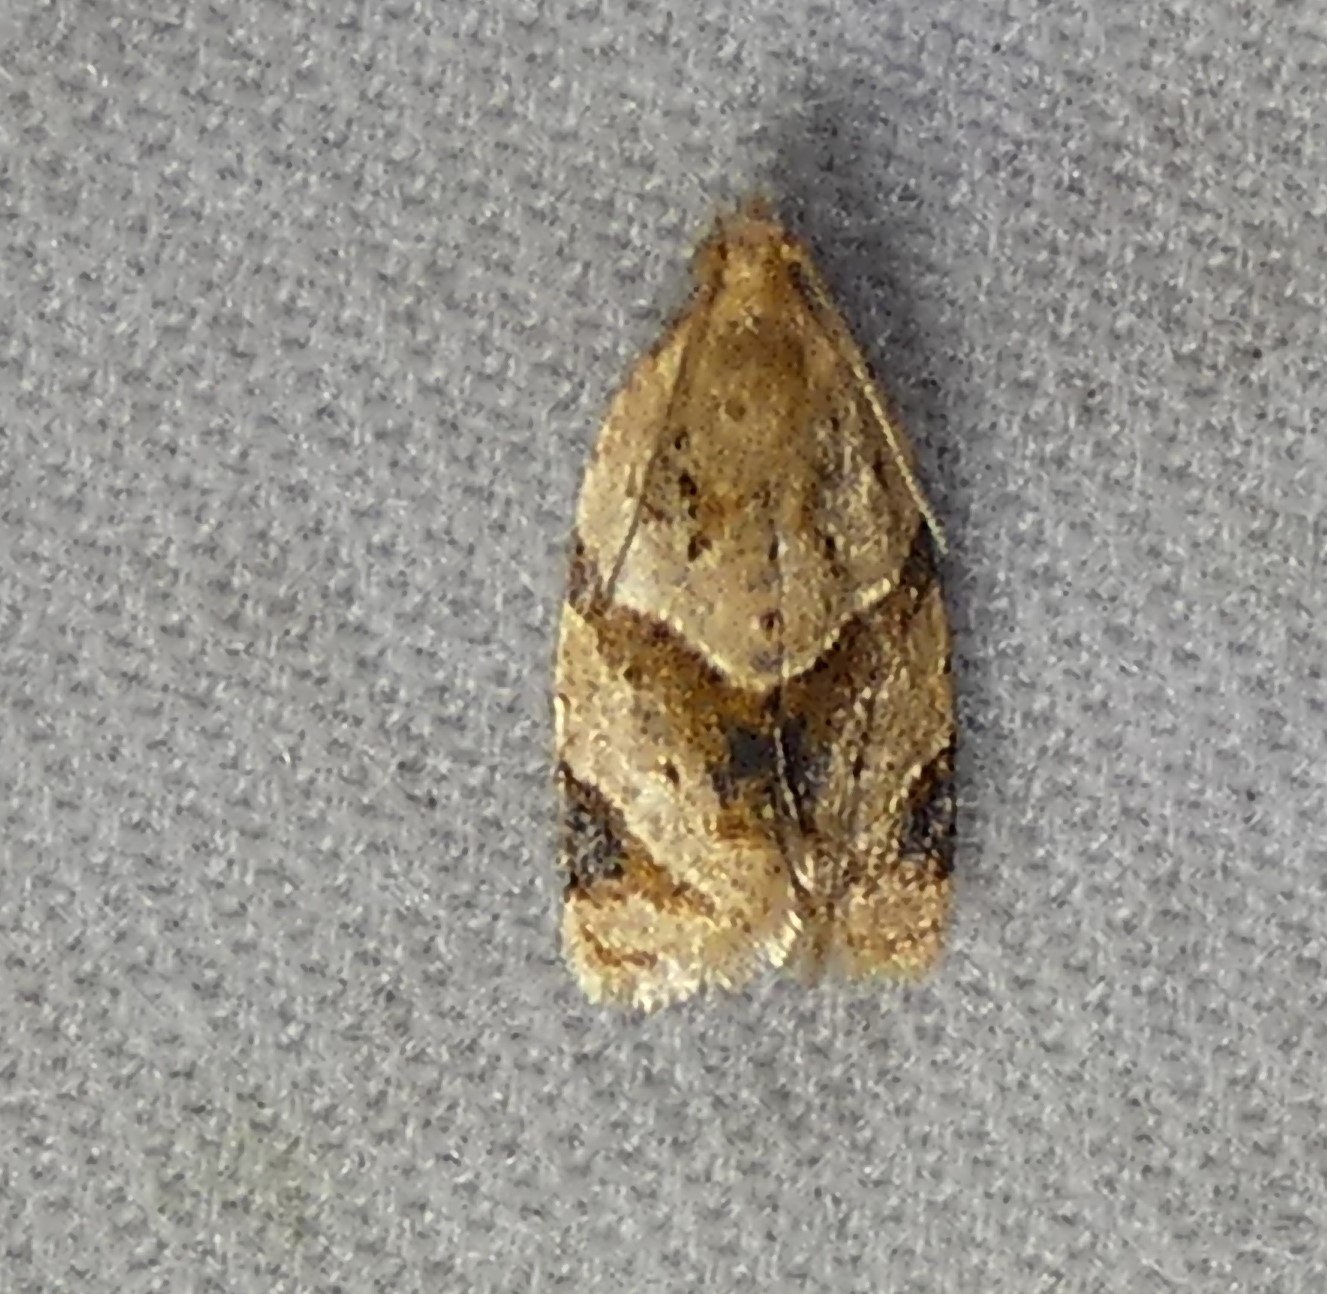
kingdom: Animalia
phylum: Arthropoda
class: Insecta
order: Lepidoptera
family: Tortricidae
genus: Clepsis
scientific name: Clepsis peritana
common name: Garden tortrix
